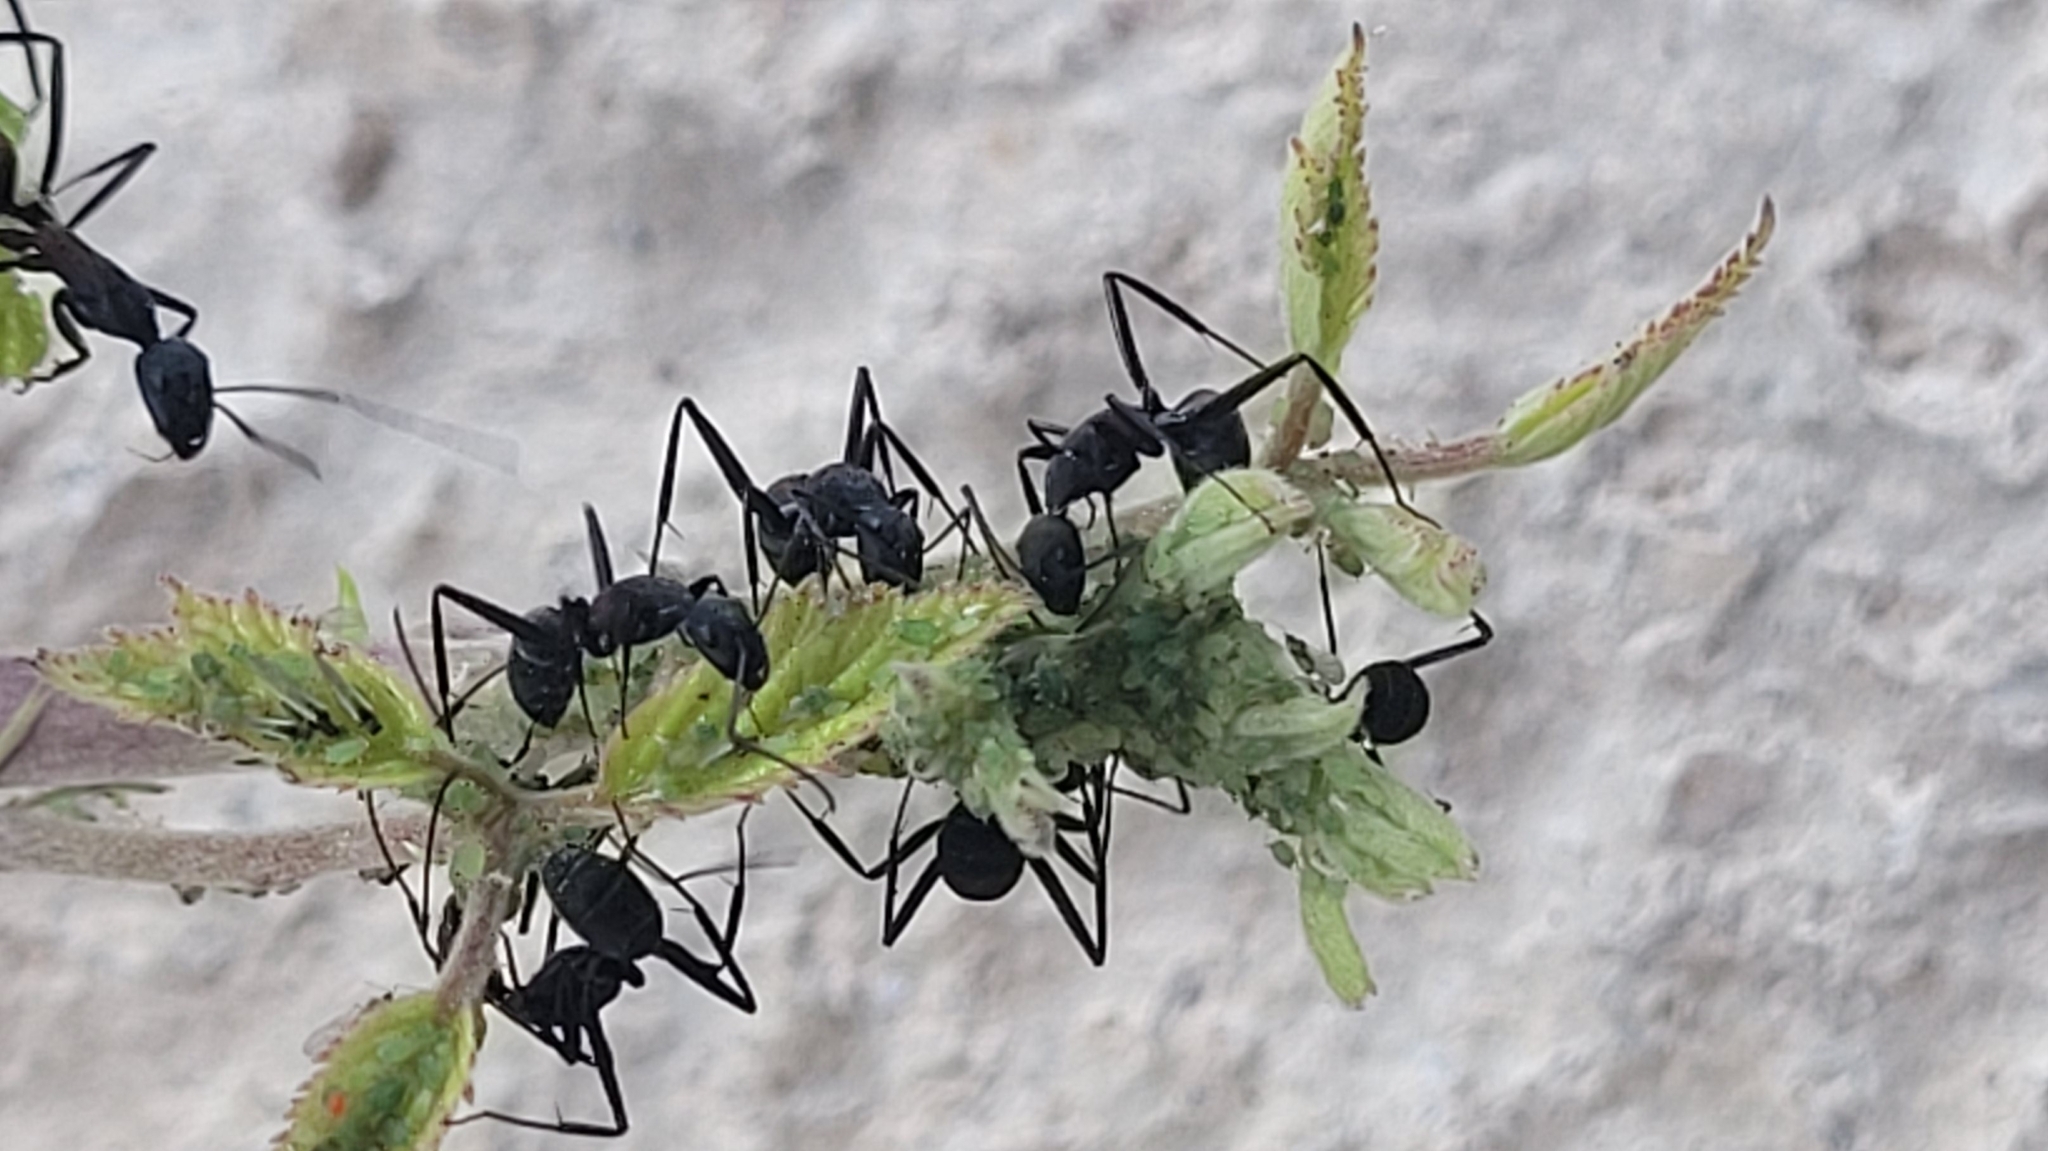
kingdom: Animalia
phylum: Arthropoda
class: Insecta
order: Hymenoptera
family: Formicidae
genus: Camponotus
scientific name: Camponotus cruentatus
